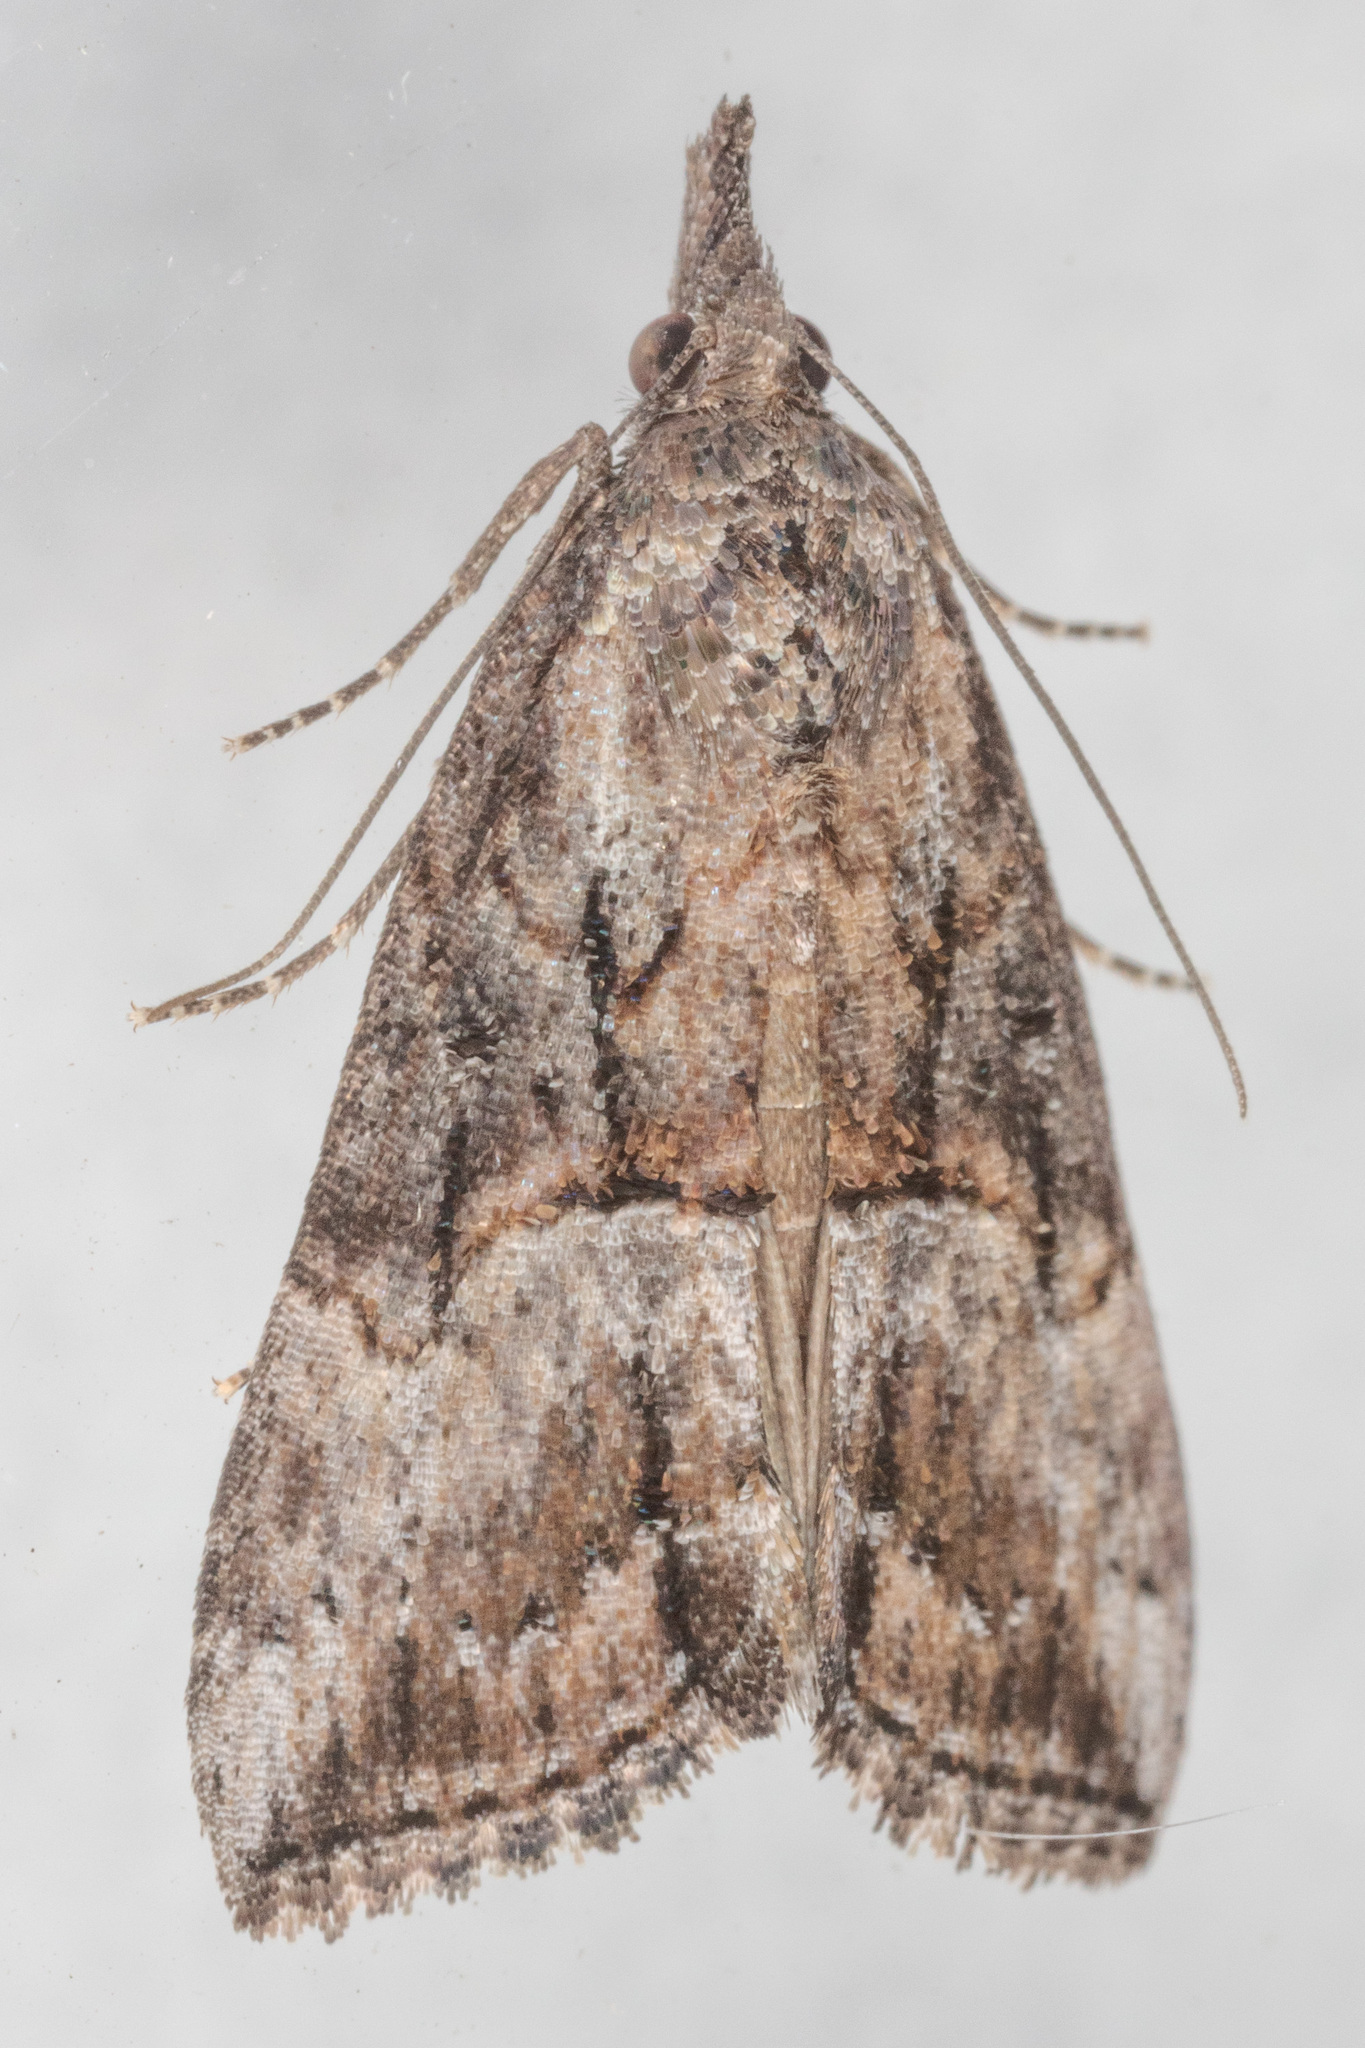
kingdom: Animalia
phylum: Arthropoda
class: Insecta
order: Lepidoptera
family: Erebidae
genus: Hypena
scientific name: Hypena scabra
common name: Green cloverworm
